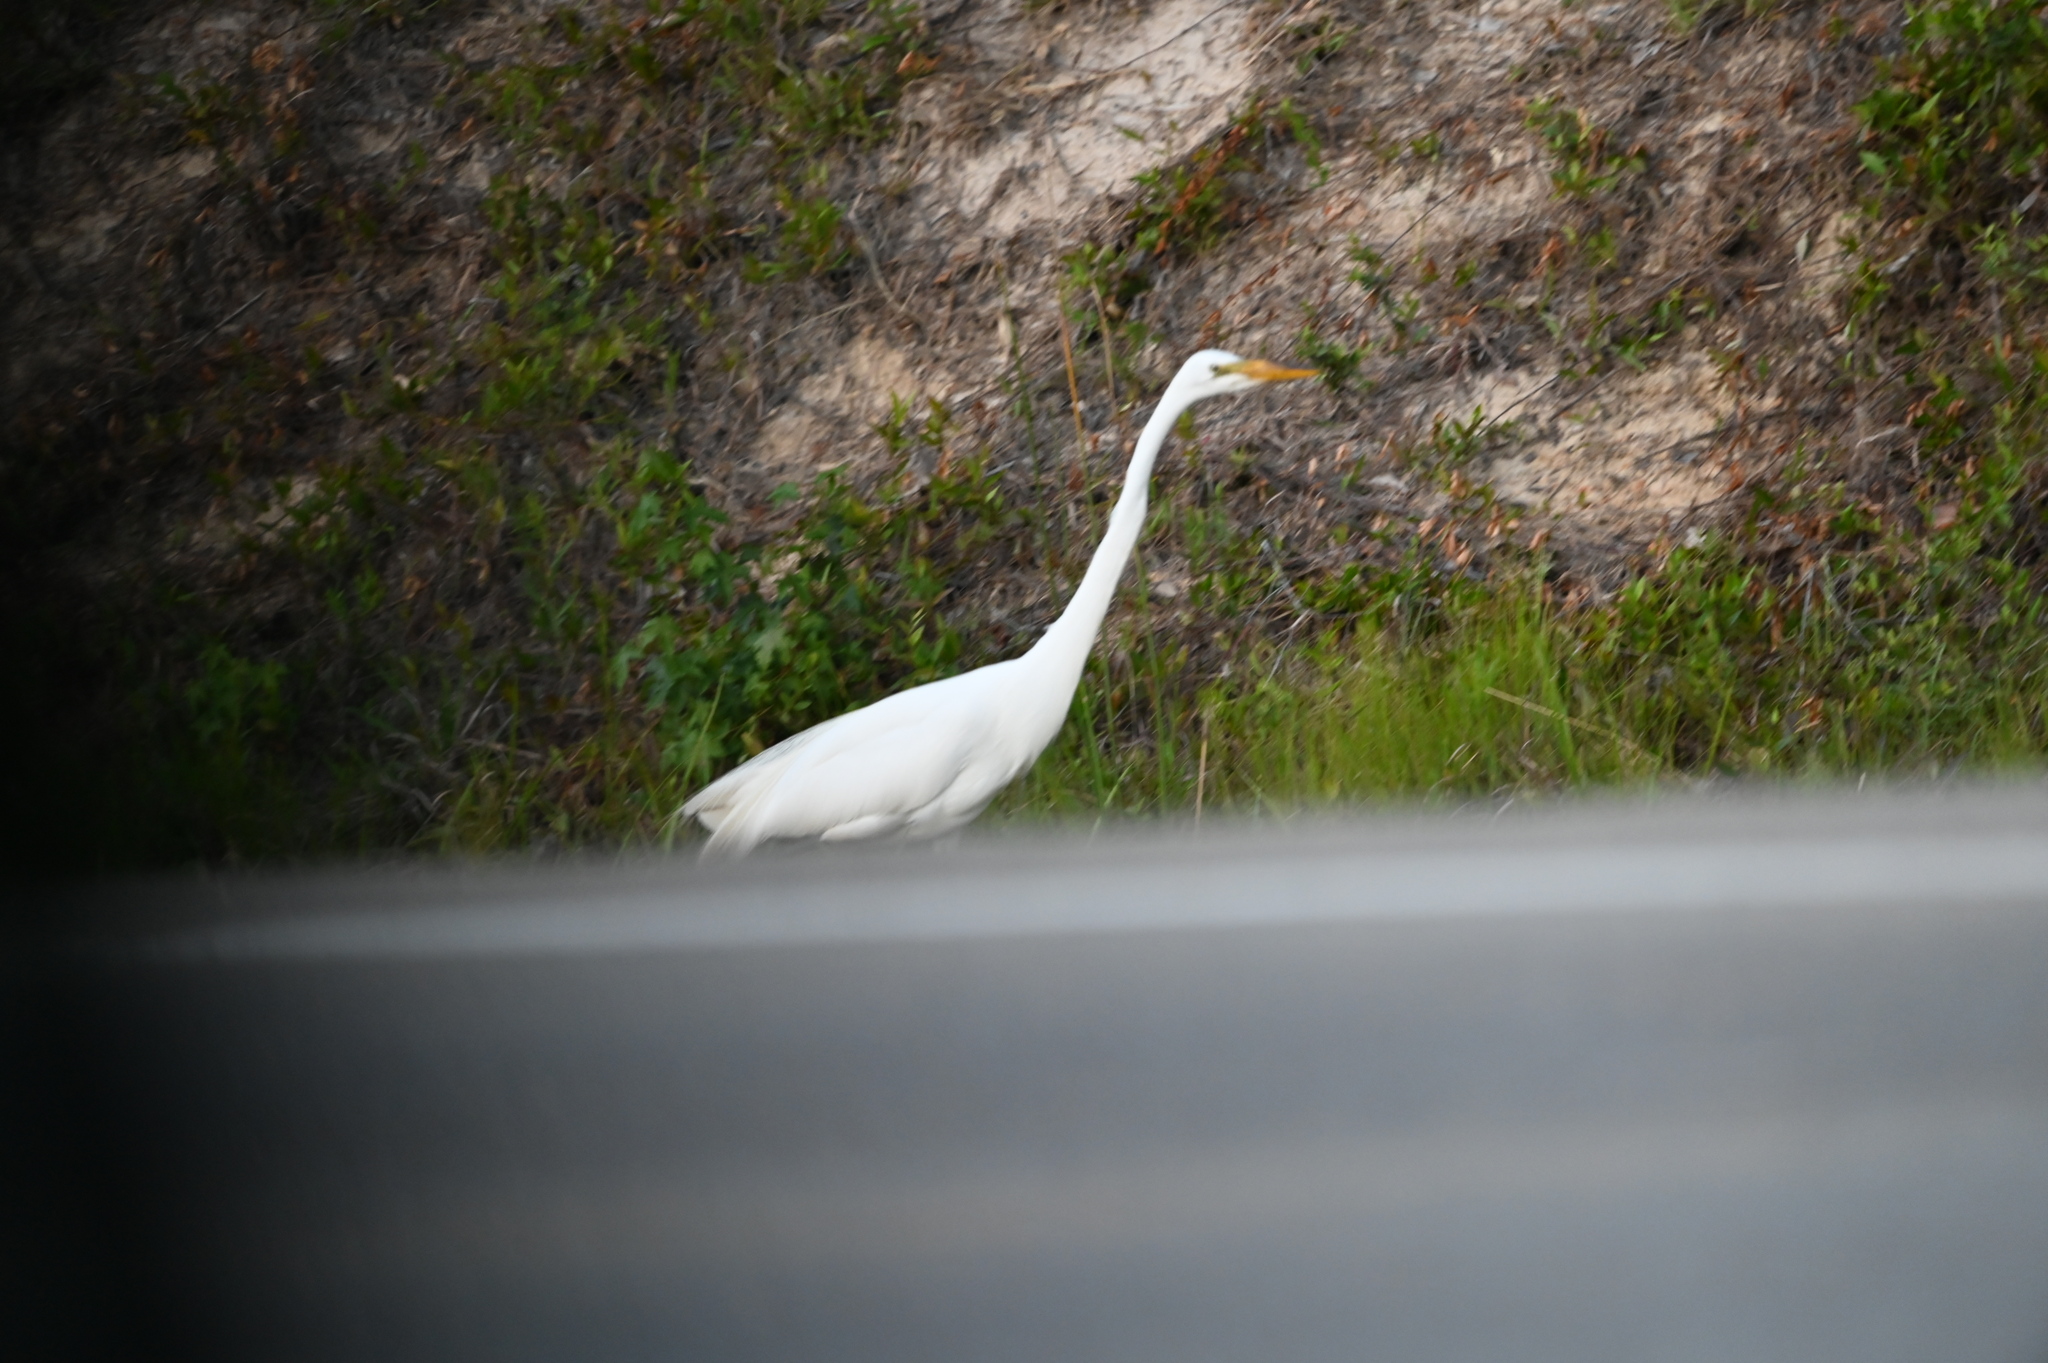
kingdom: Animalia
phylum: Chordata
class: Aves
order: Pelecaniformes
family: Ardeidae
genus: Ardea
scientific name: Ardea alba
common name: Great egret
